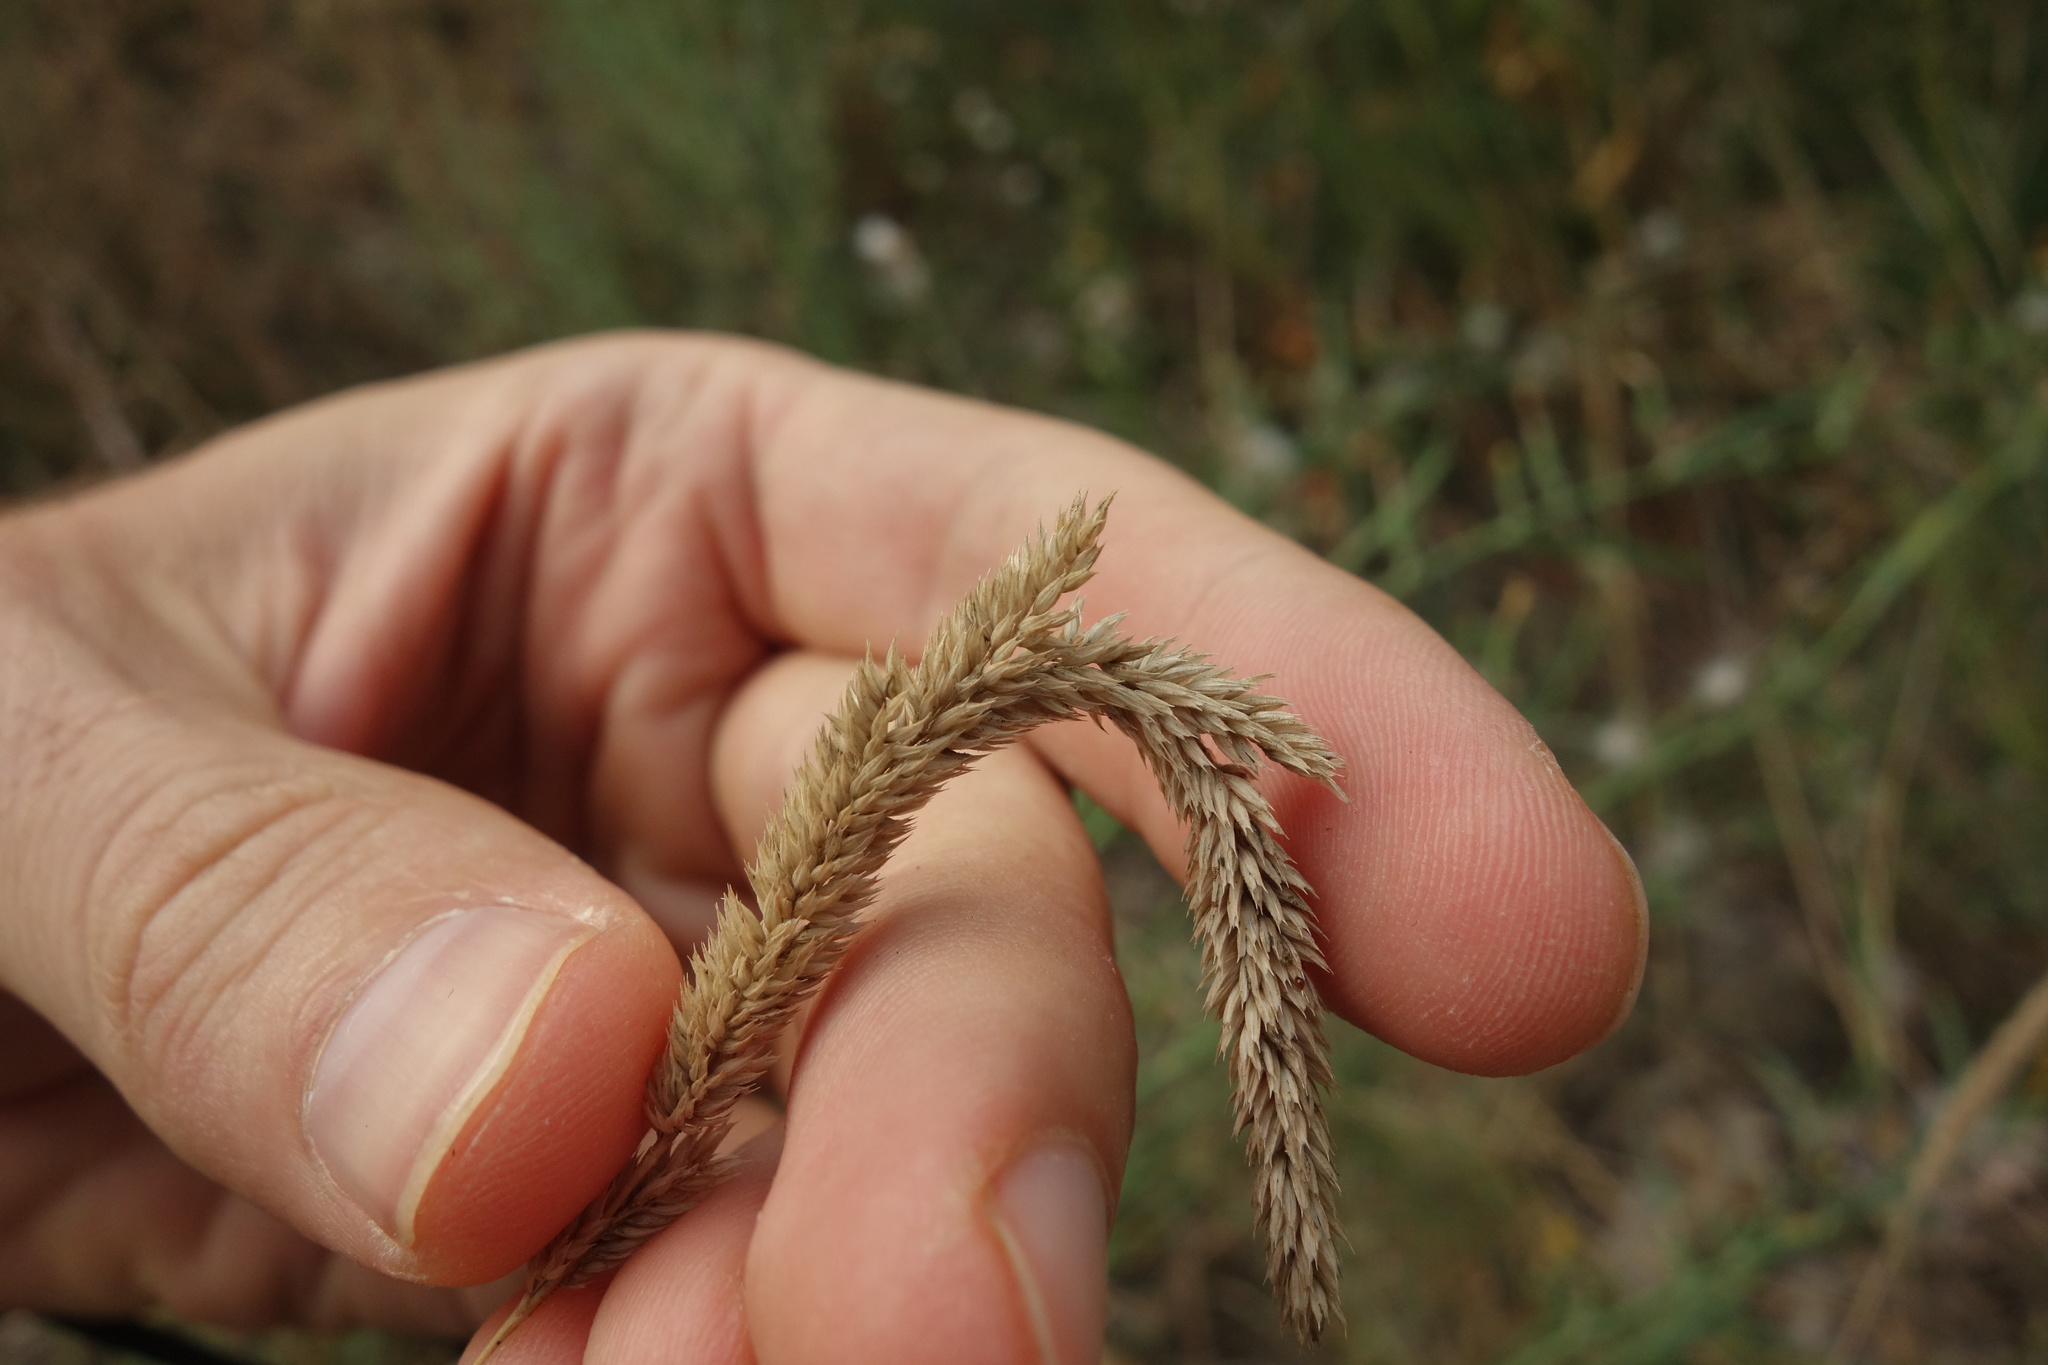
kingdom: Plantae
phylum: Tracheophyta
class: Liliopsida
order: Poales
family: Poaceae
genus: Phleum
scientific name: Phleum phleoides
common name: Purple-stem cat's-tail
